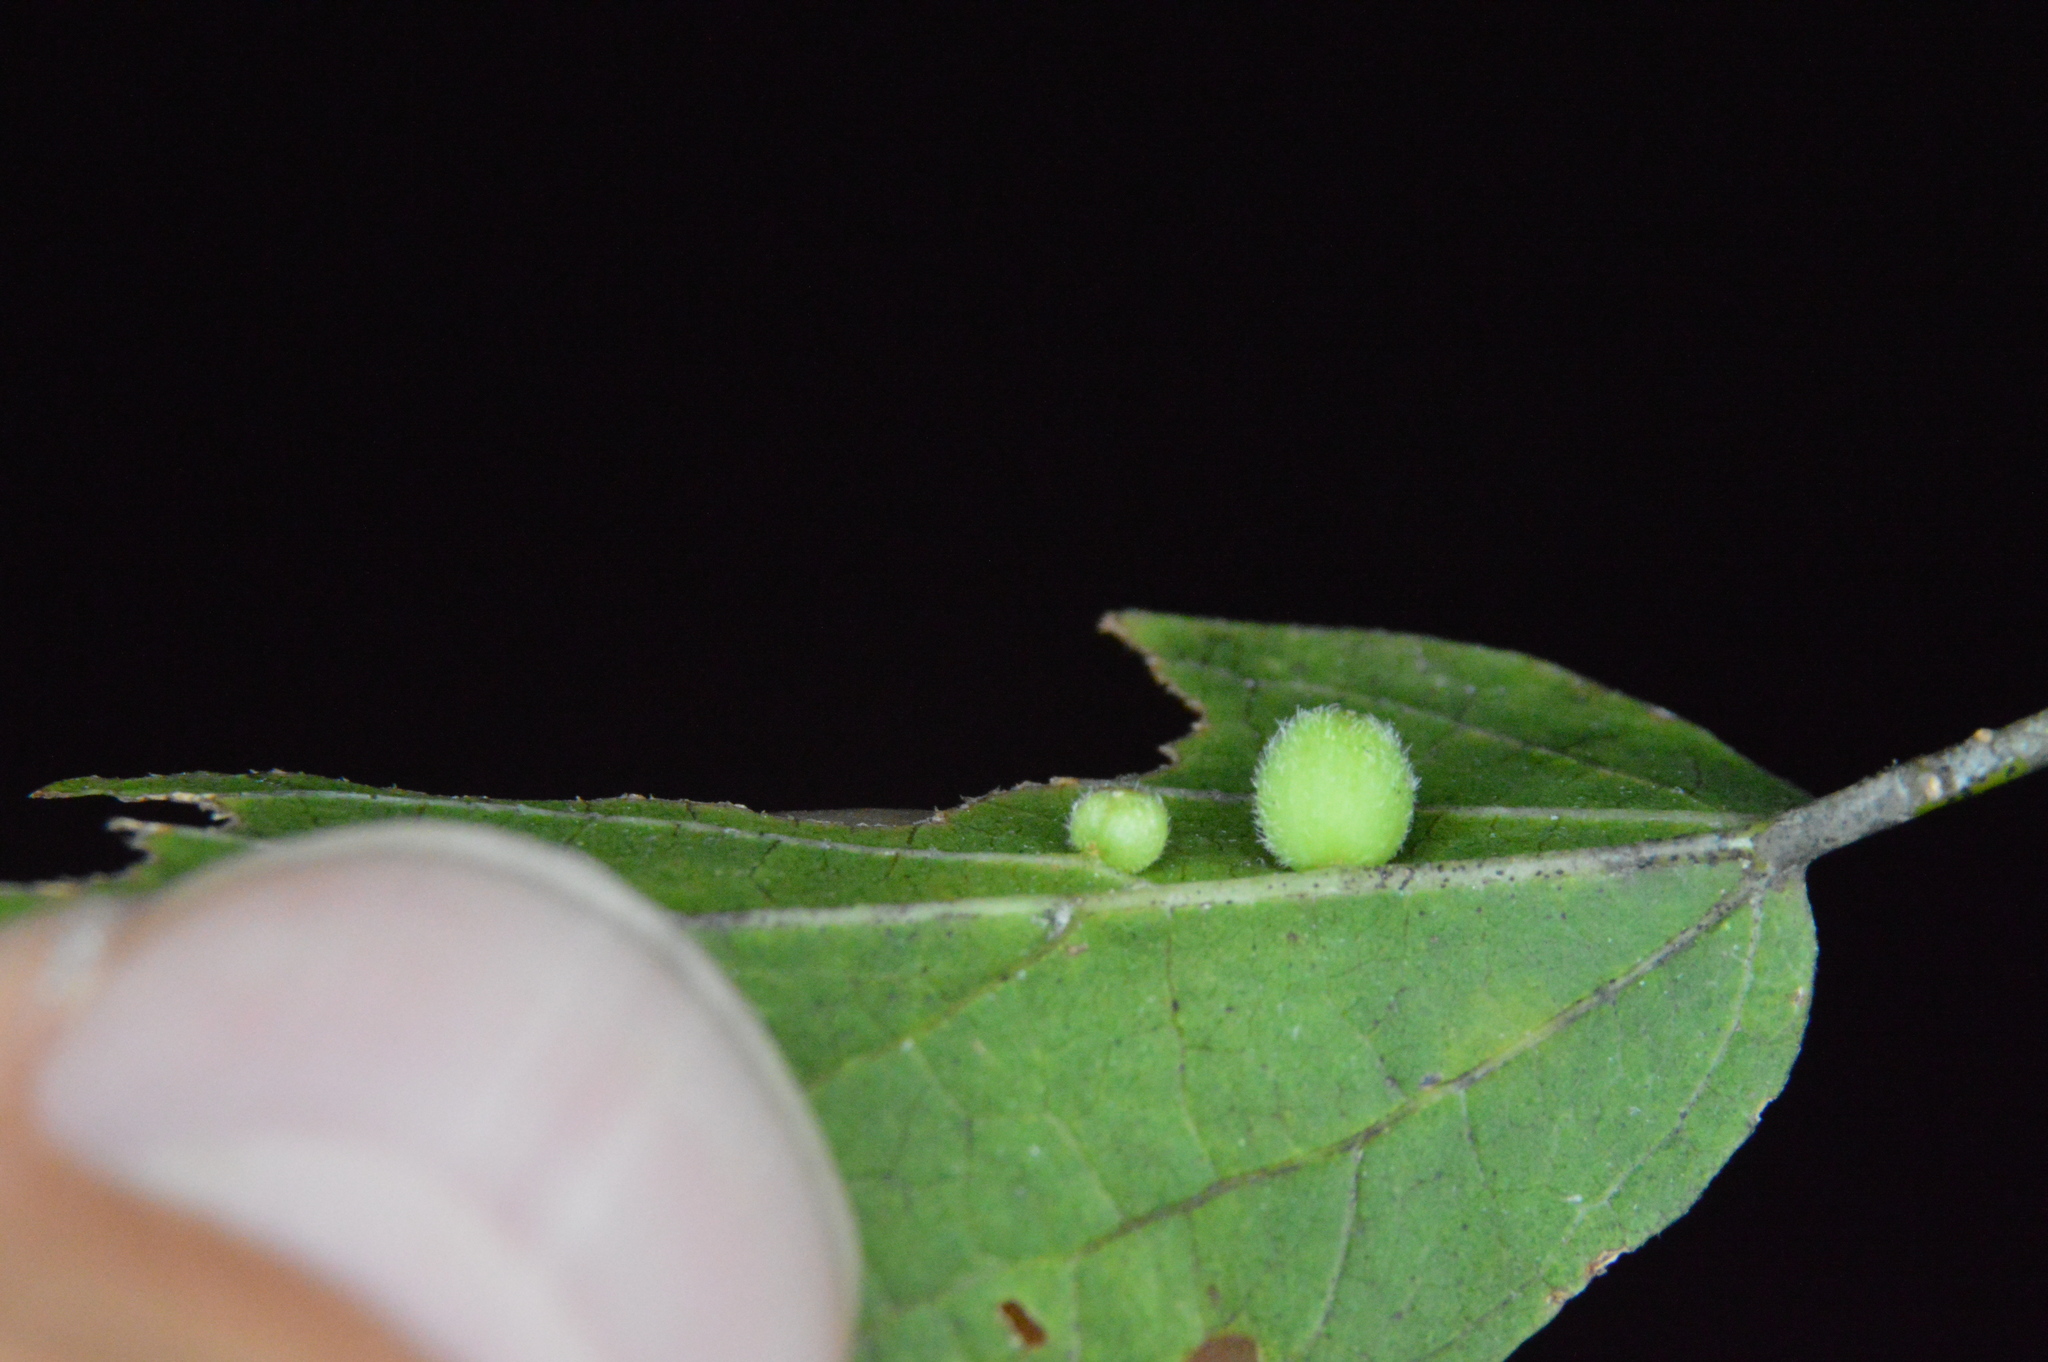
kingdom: Animalia
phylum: Arthropoda
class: Insecta
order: Diptera
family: Cecidomyiidae
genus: Celticecis
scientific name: Celticecis globosa
